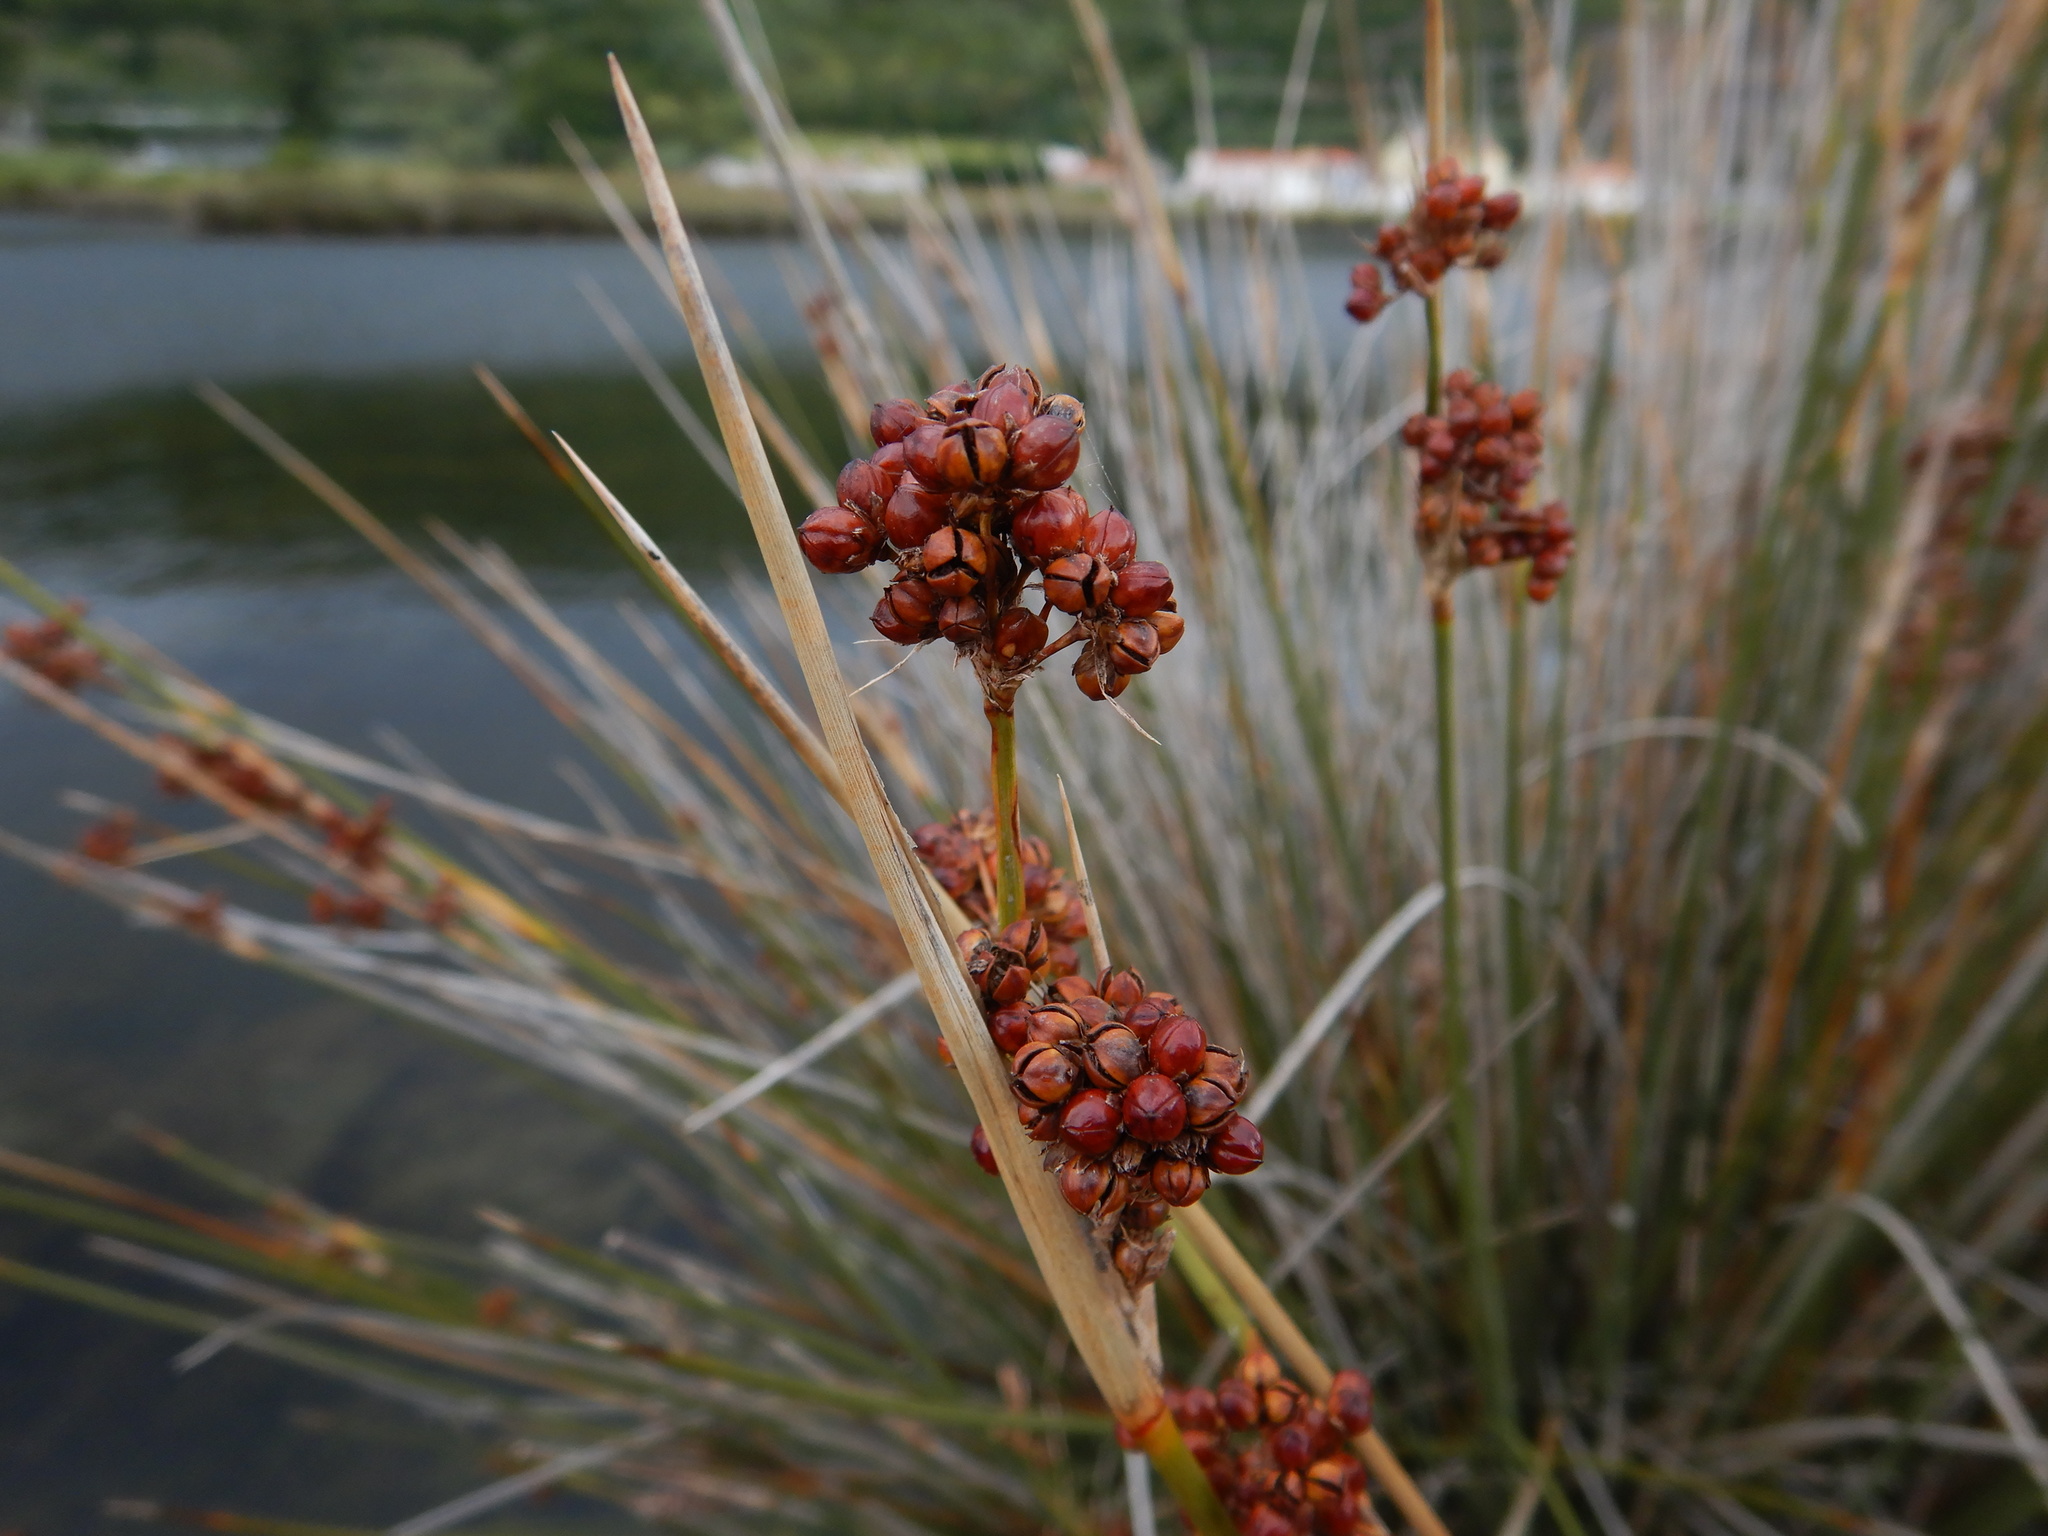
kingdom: Plantae
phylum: Tracheophyta
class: Liliopsida
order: Poales
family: Juncaceae
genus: Juncus
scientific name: Juncus acutus
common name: Sharp rush
